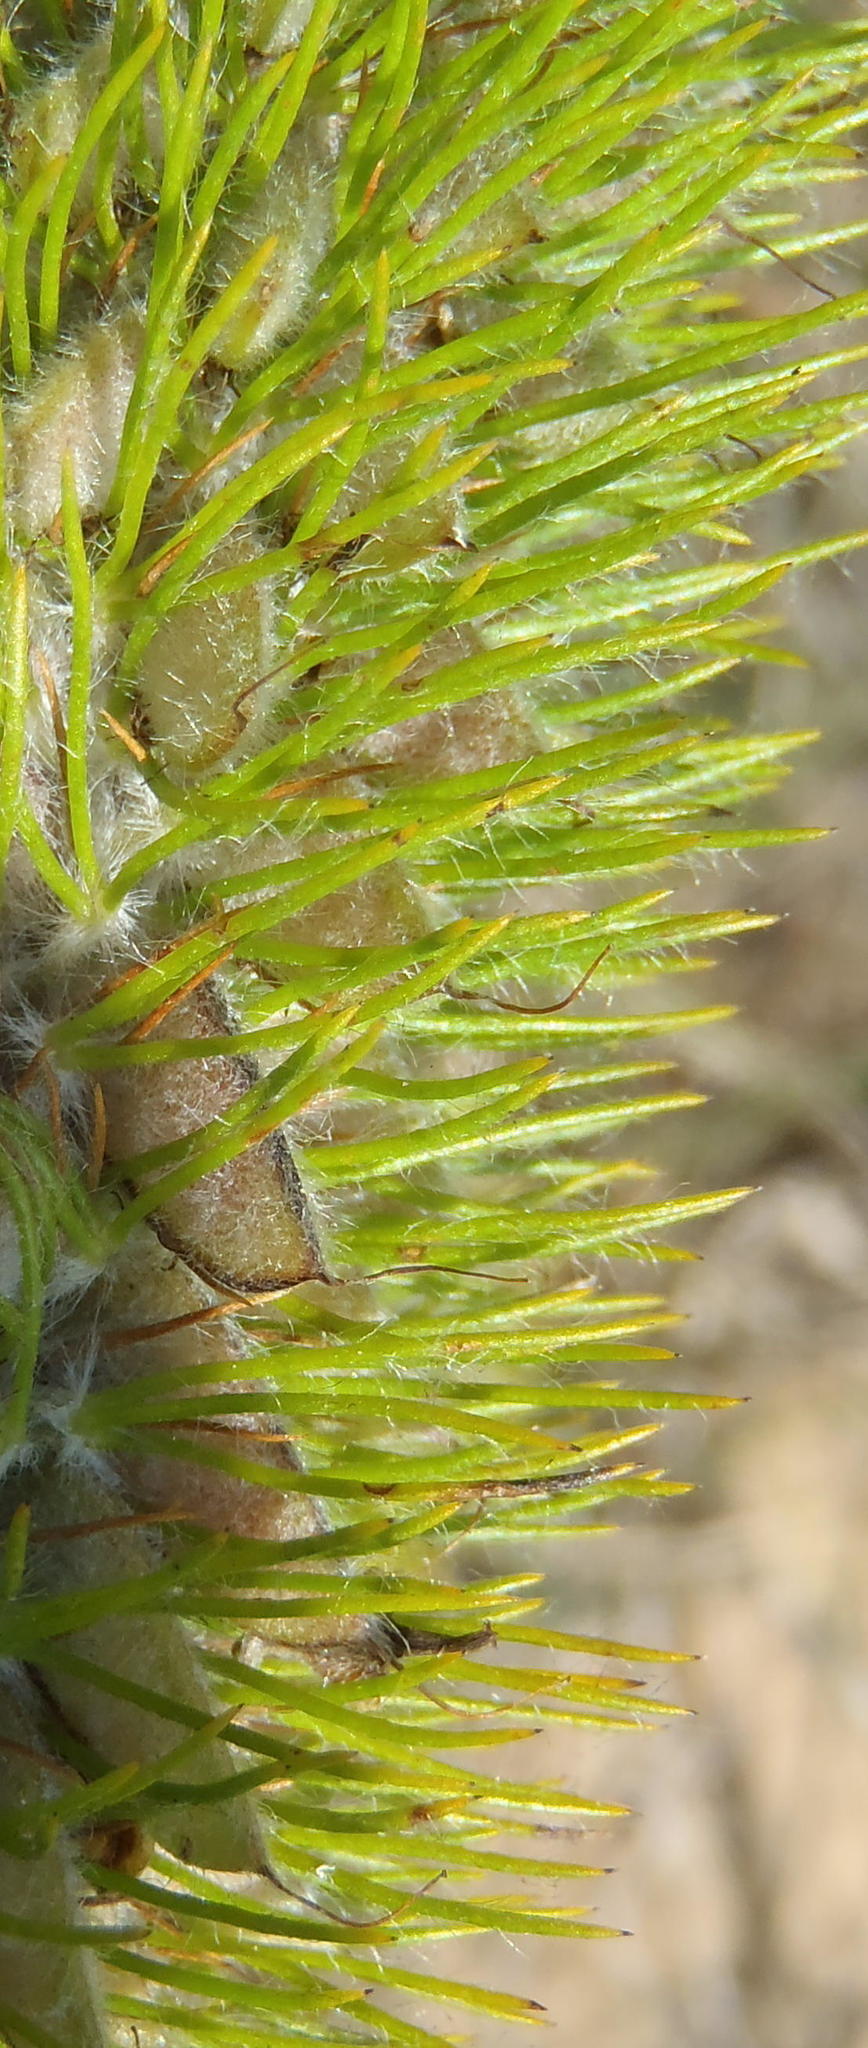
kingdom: Plantae
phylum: Tracheophyta
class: Magnoliopsida
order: Fabales
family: Fabaceae
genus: Aspalathus
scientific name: Aspalathus alopecurus
